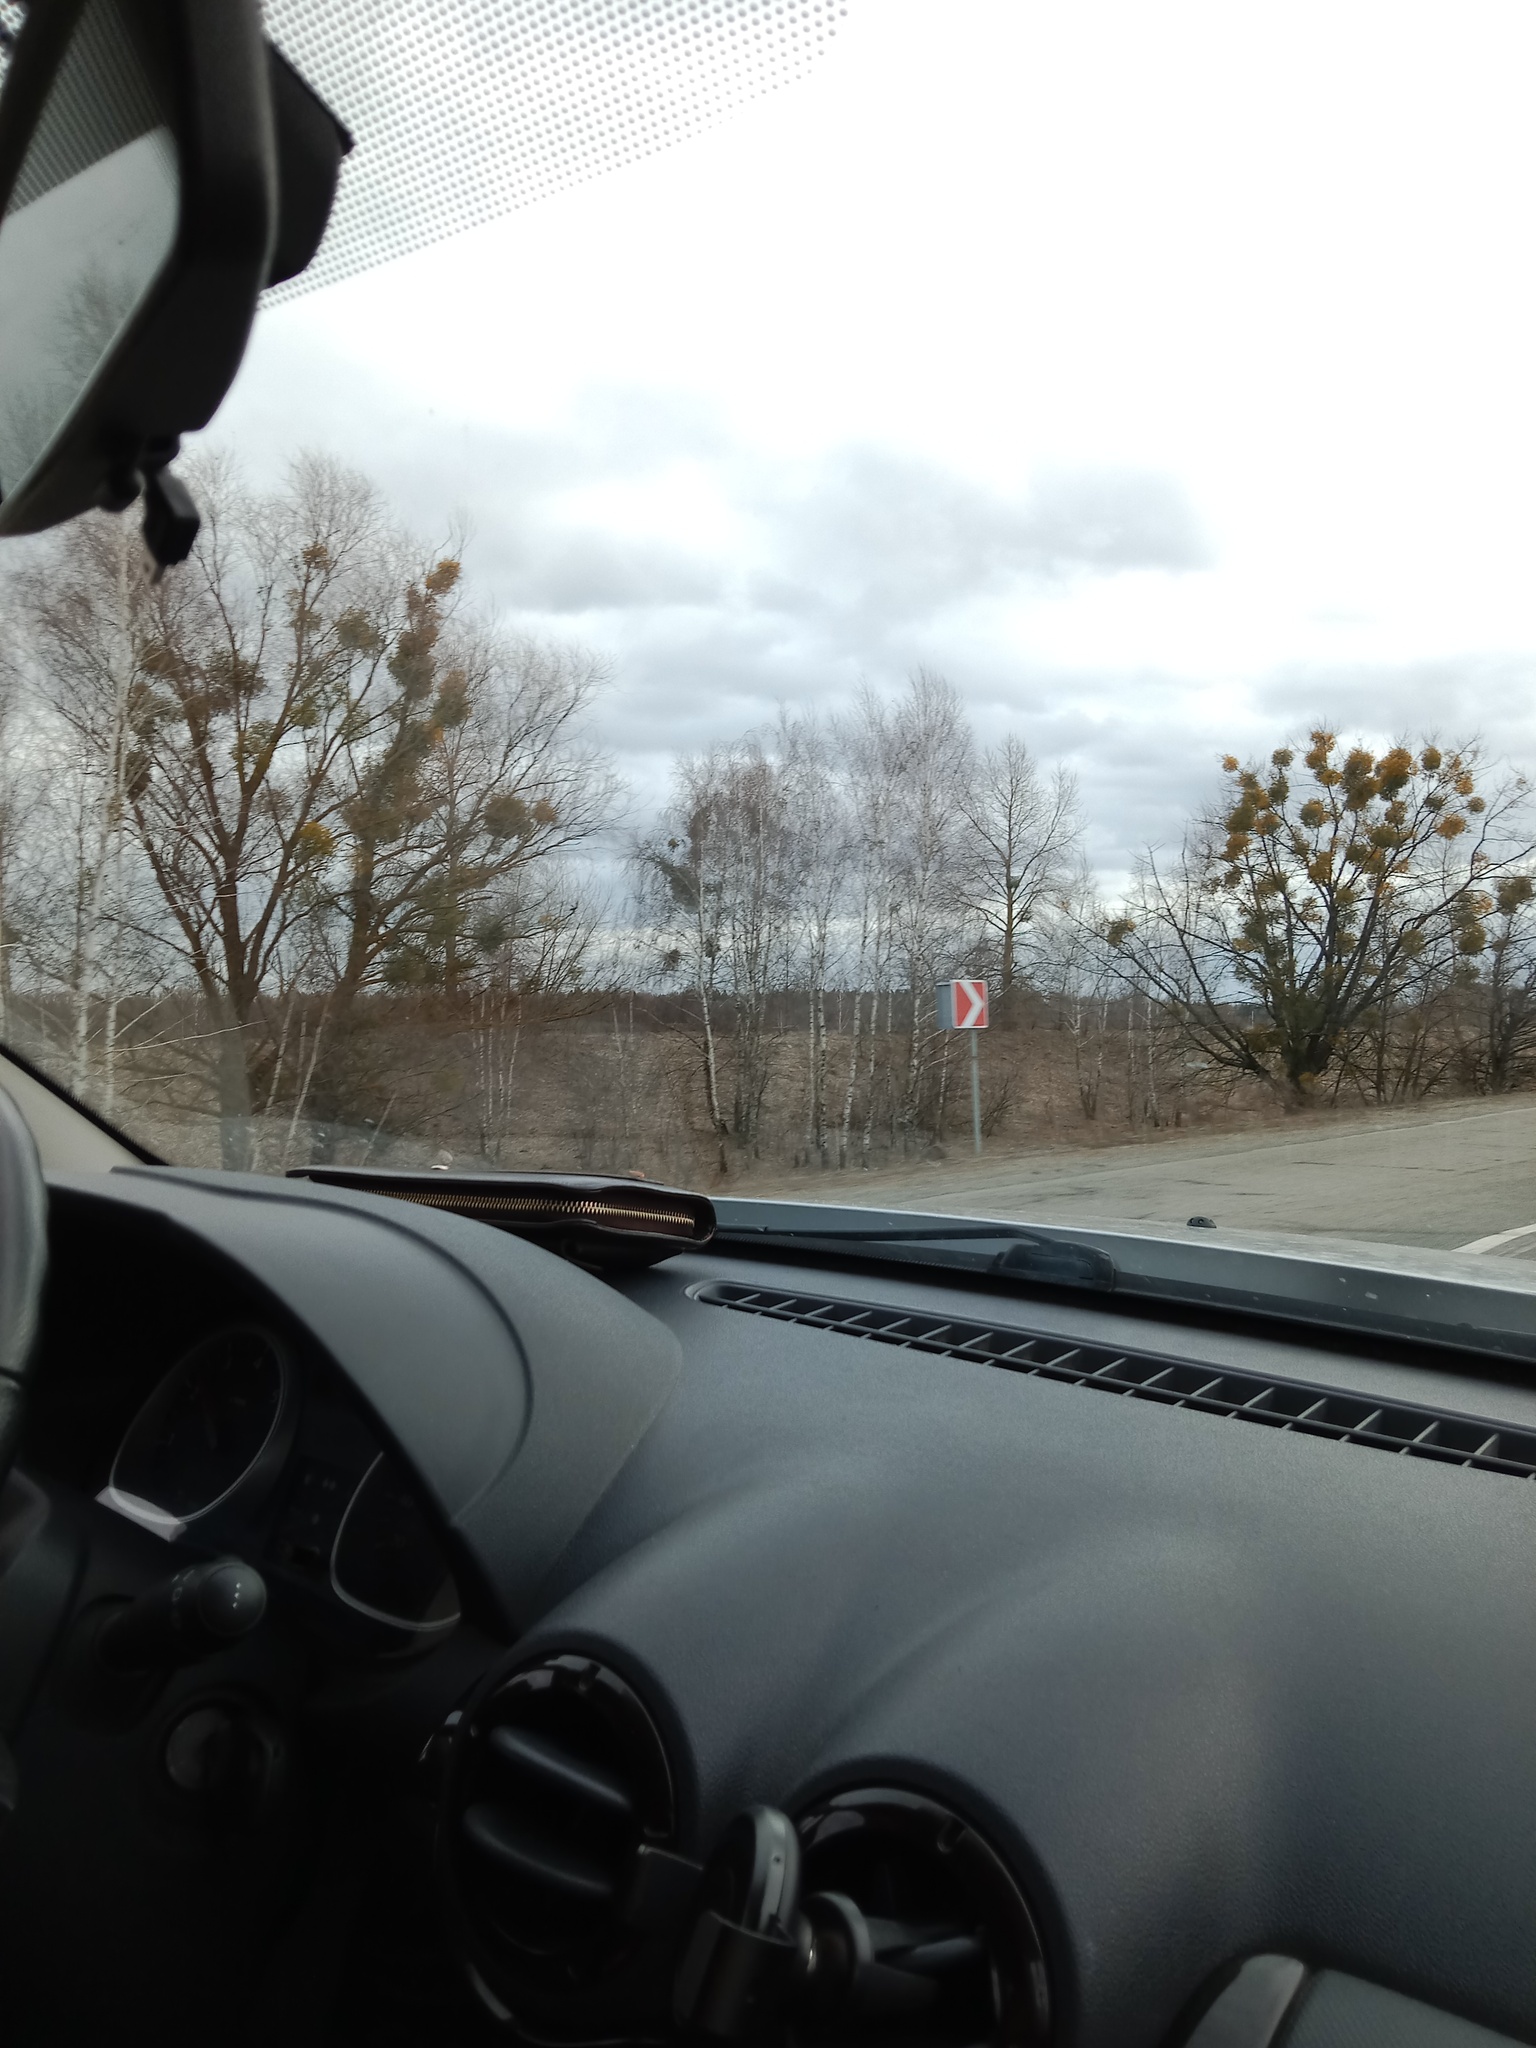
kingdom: Plantae
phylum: Tracheophyta
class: Magnoliopsida
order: Santalales
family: Viscaceae
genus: Viscum
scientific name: Viscum album
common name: Mistletoe
